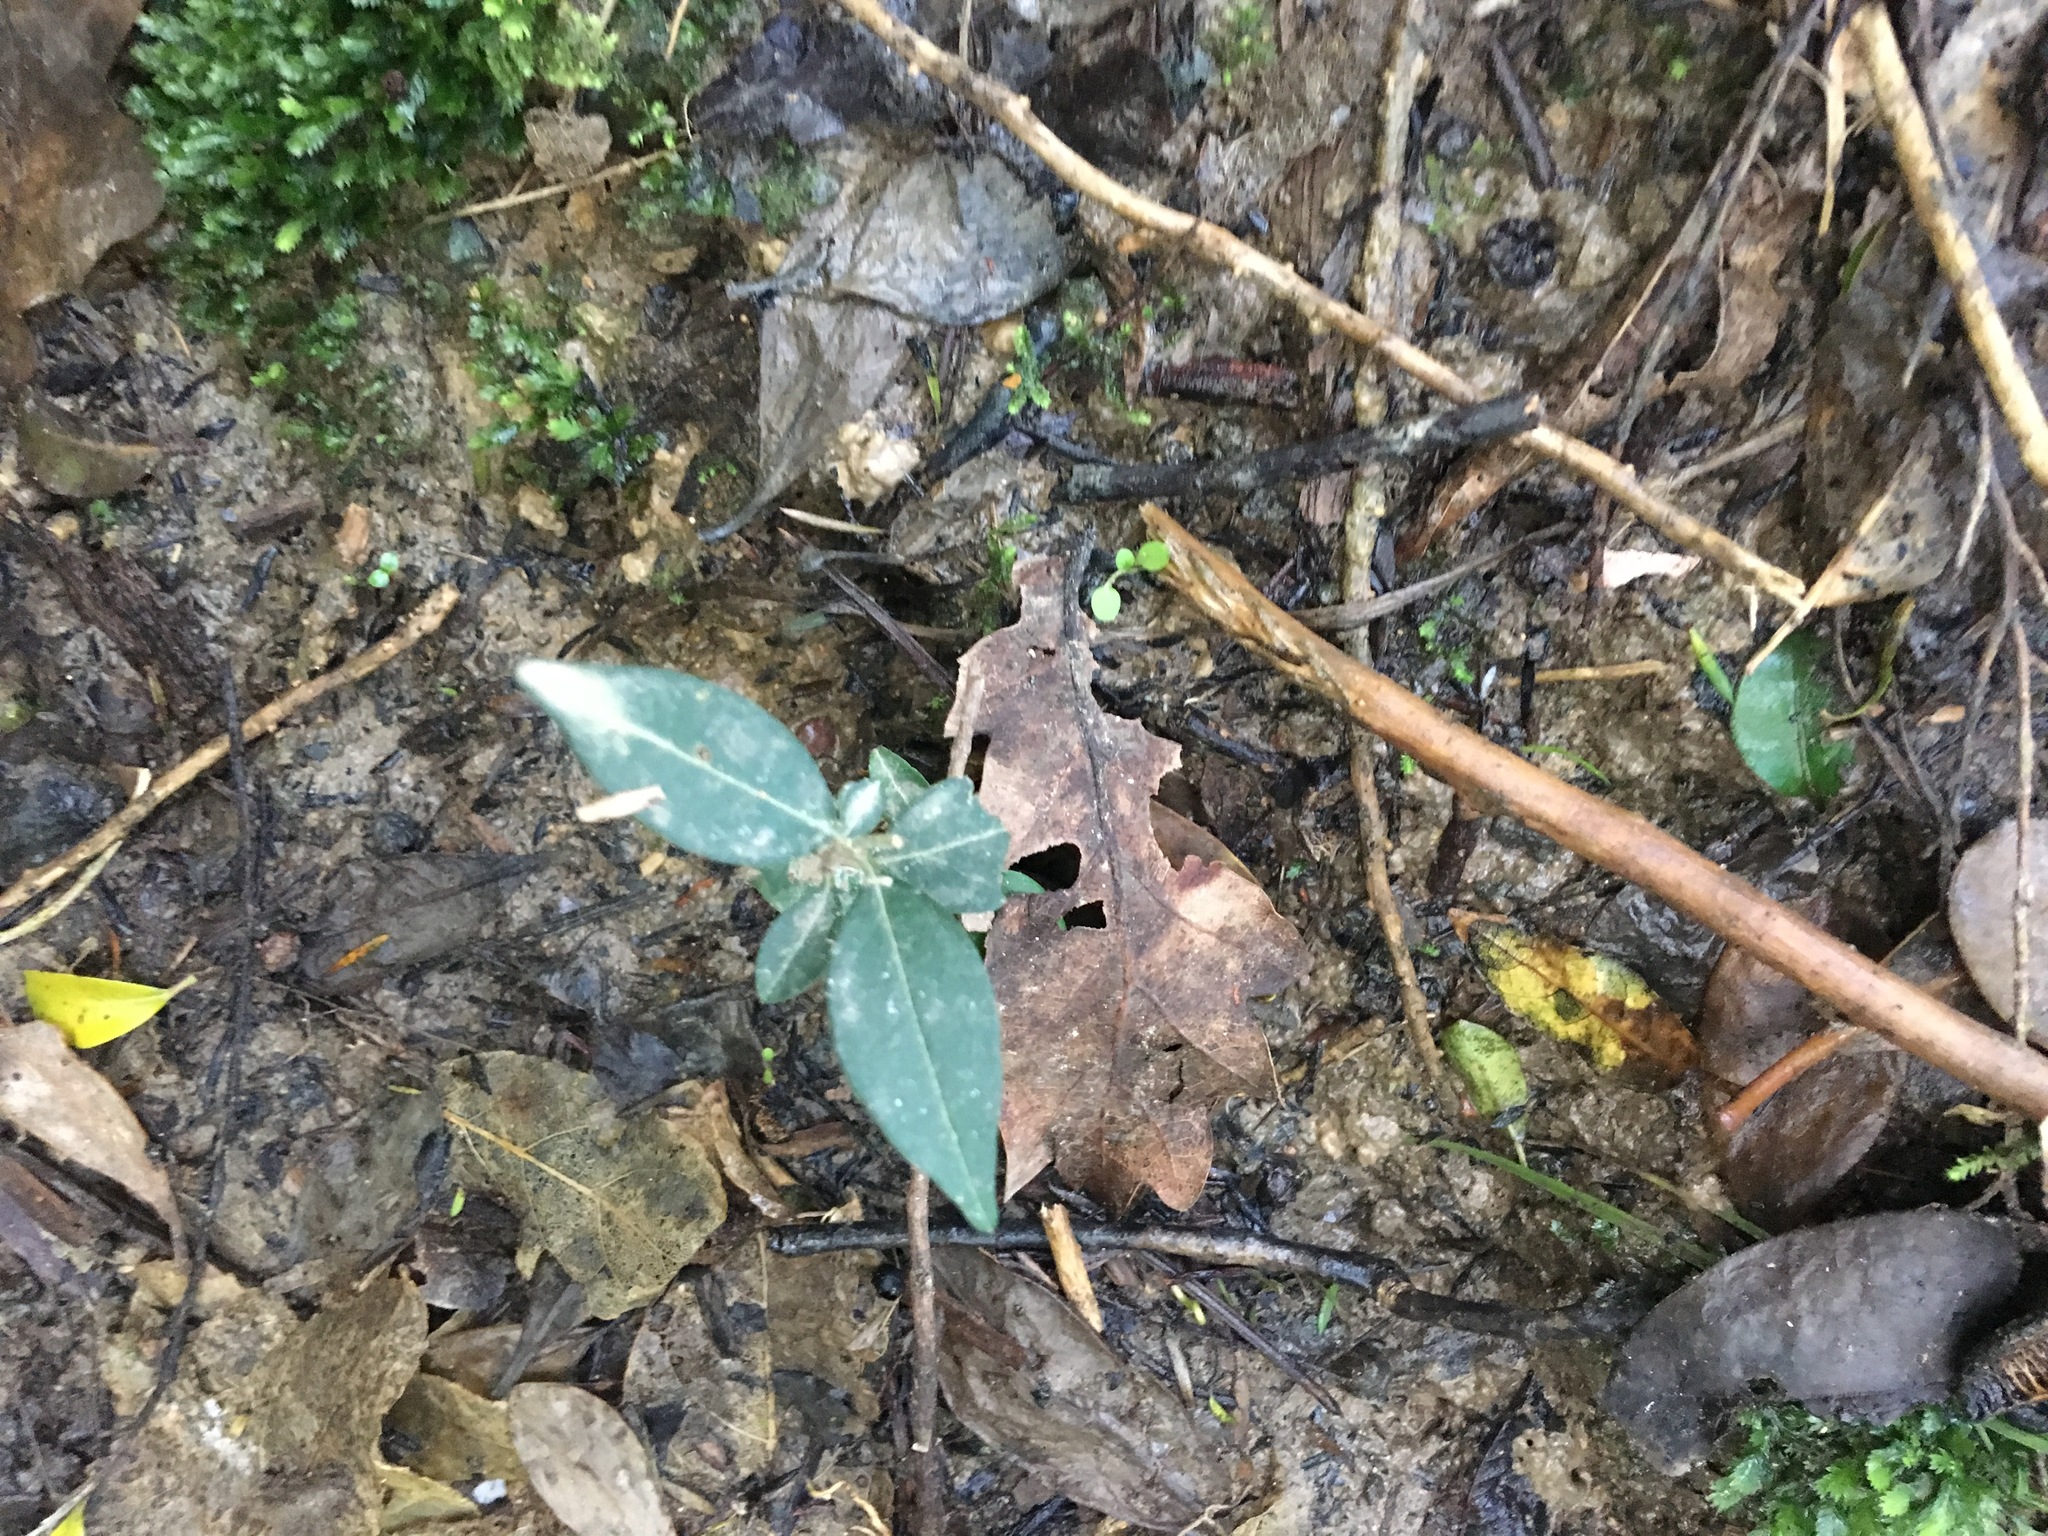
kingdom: Plantae
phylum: Tracheophyta
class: Magnoliopsida
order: Lamiales
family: Oleaceae
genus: Ligustrum
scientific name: Ligustrum lucidum
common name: Glossy privet
